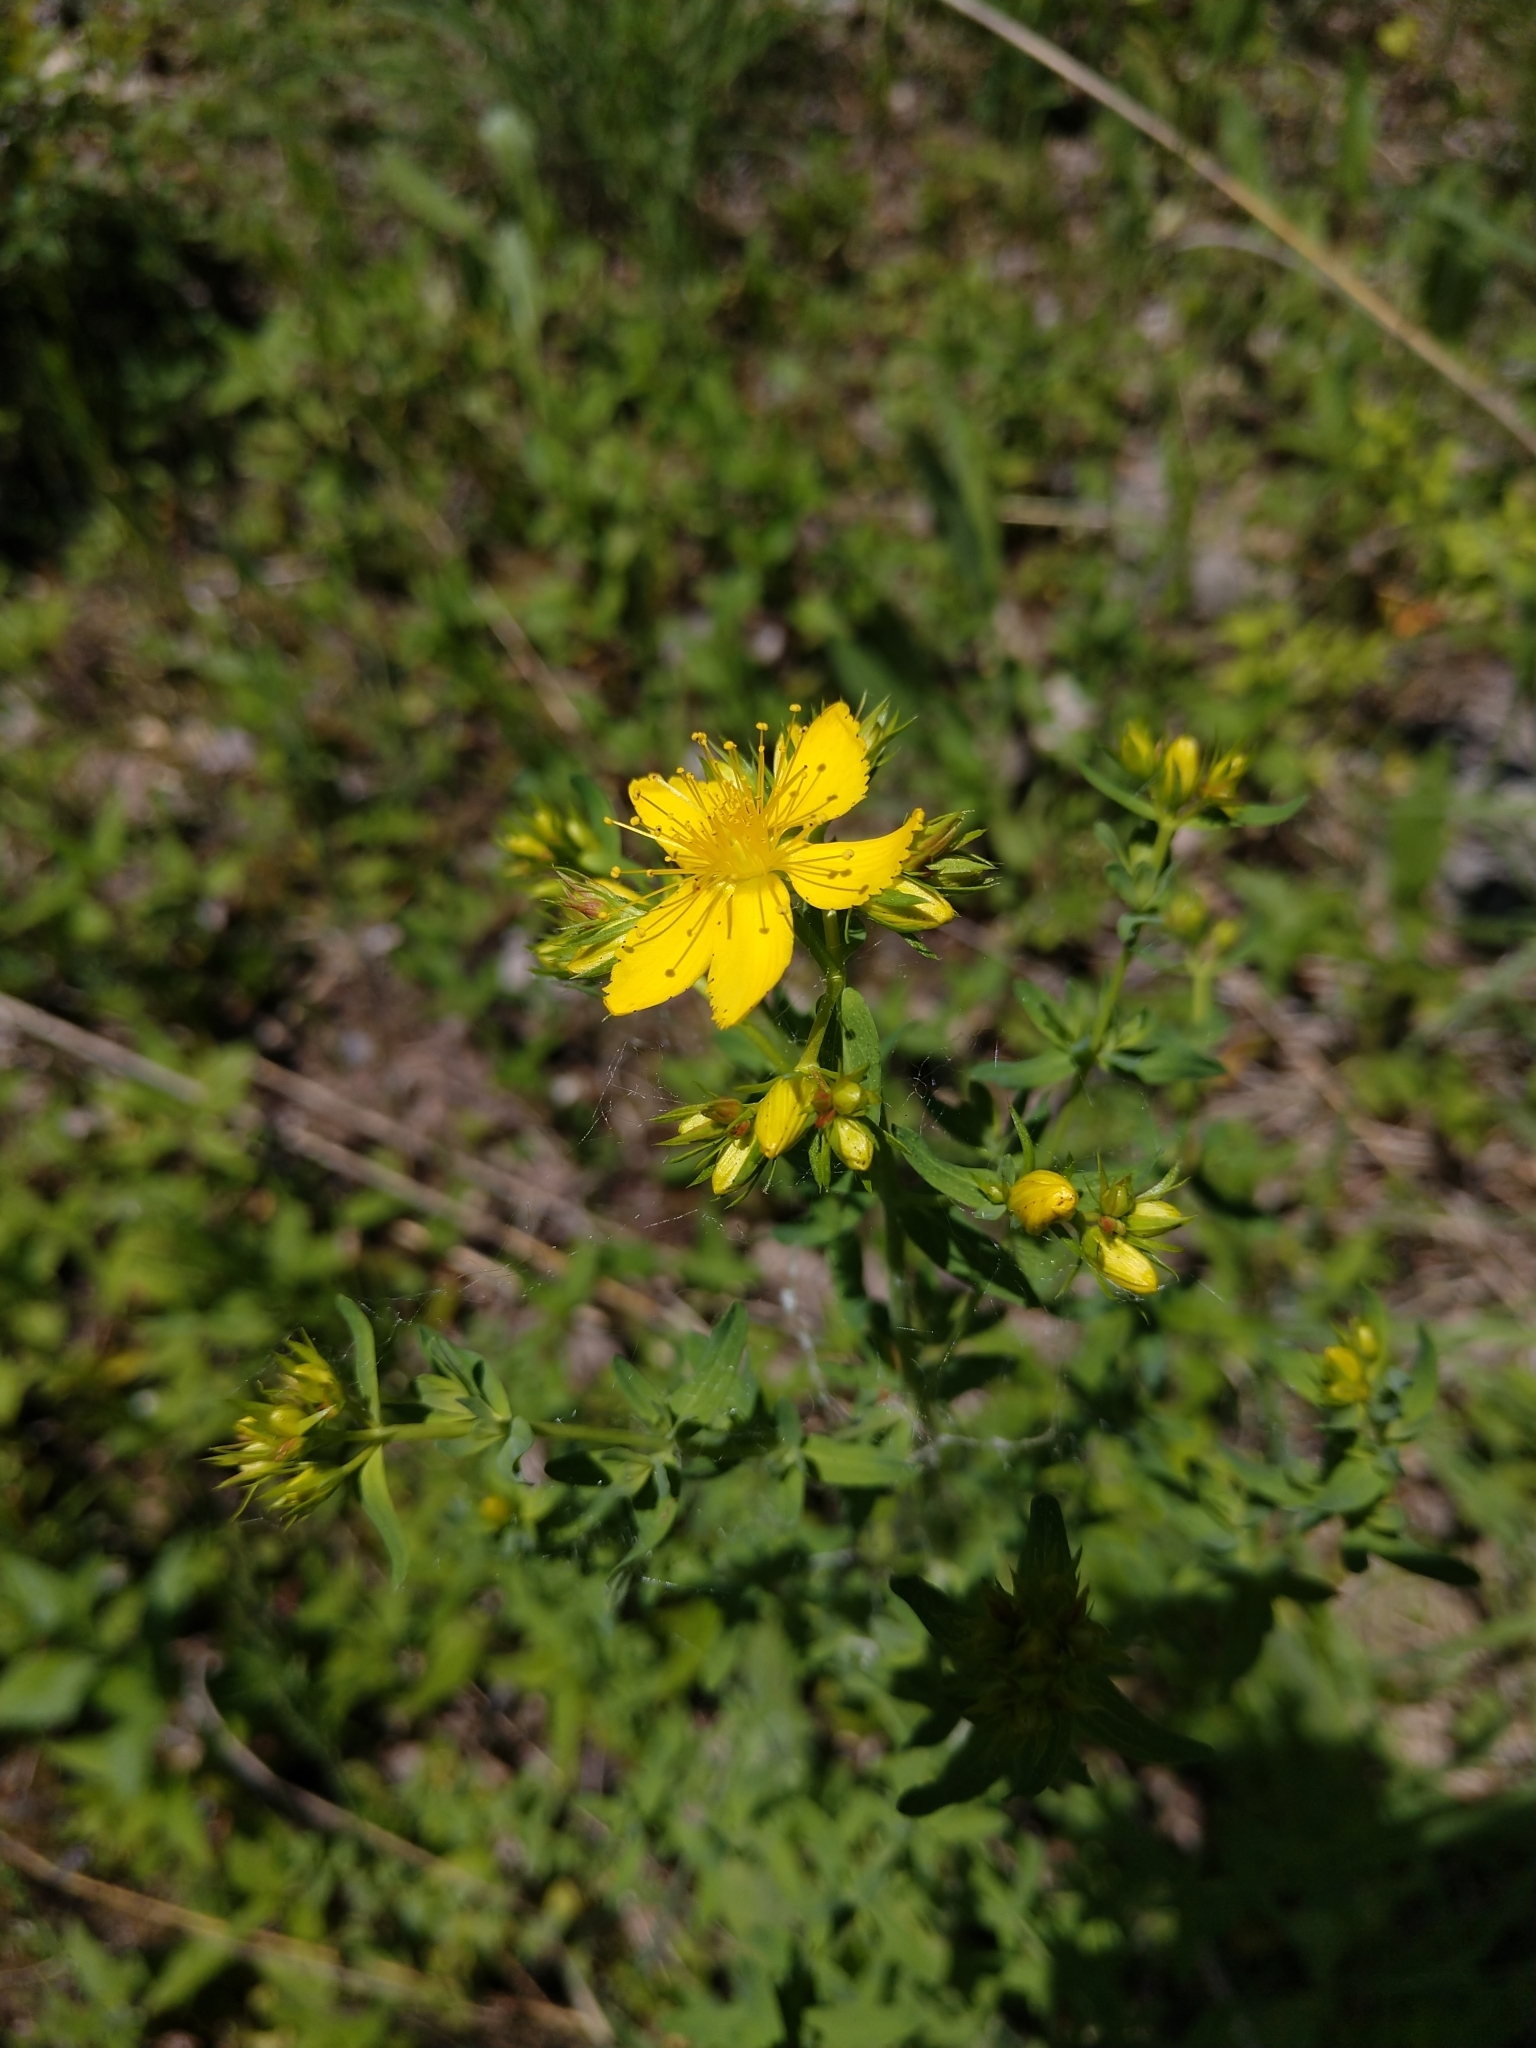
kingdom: Plantae
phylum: Tracheophyta
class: Magnoliopsida
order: Malpighiales
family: Hypericaceae
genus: Hypericum
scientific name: Hypericum perforatum
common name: Common st. johnswort
